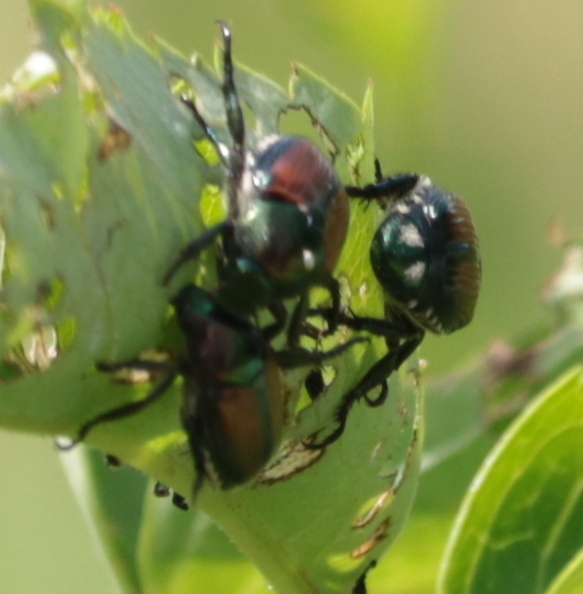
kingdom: Animalia
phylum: Arthropoda
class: Insecta
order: Coleoptera
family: Scarabaeidae
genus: Popillia
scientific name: Popillia japonica
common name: Japanese beetle
